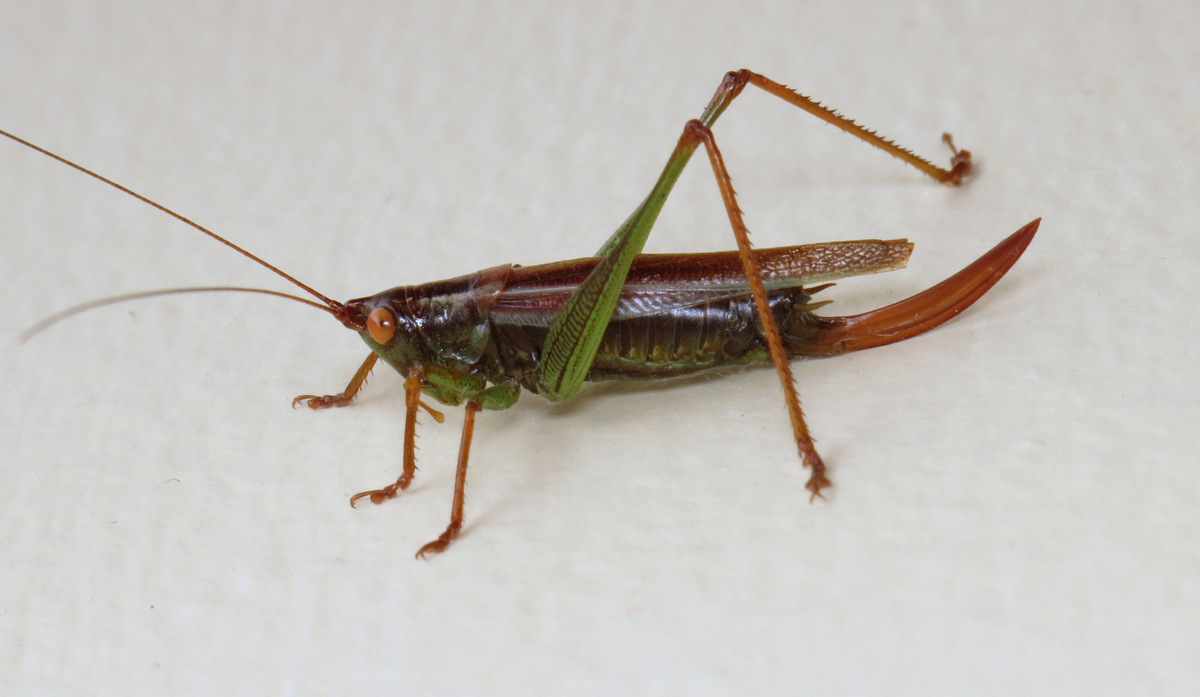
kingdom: Animalia
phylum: Arthropoda
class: Insecta
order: Orthoptera
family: Tettigoniidae
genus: Orchelimum
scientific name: Orchelimum minor
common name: Lesser pine meadow katydid
